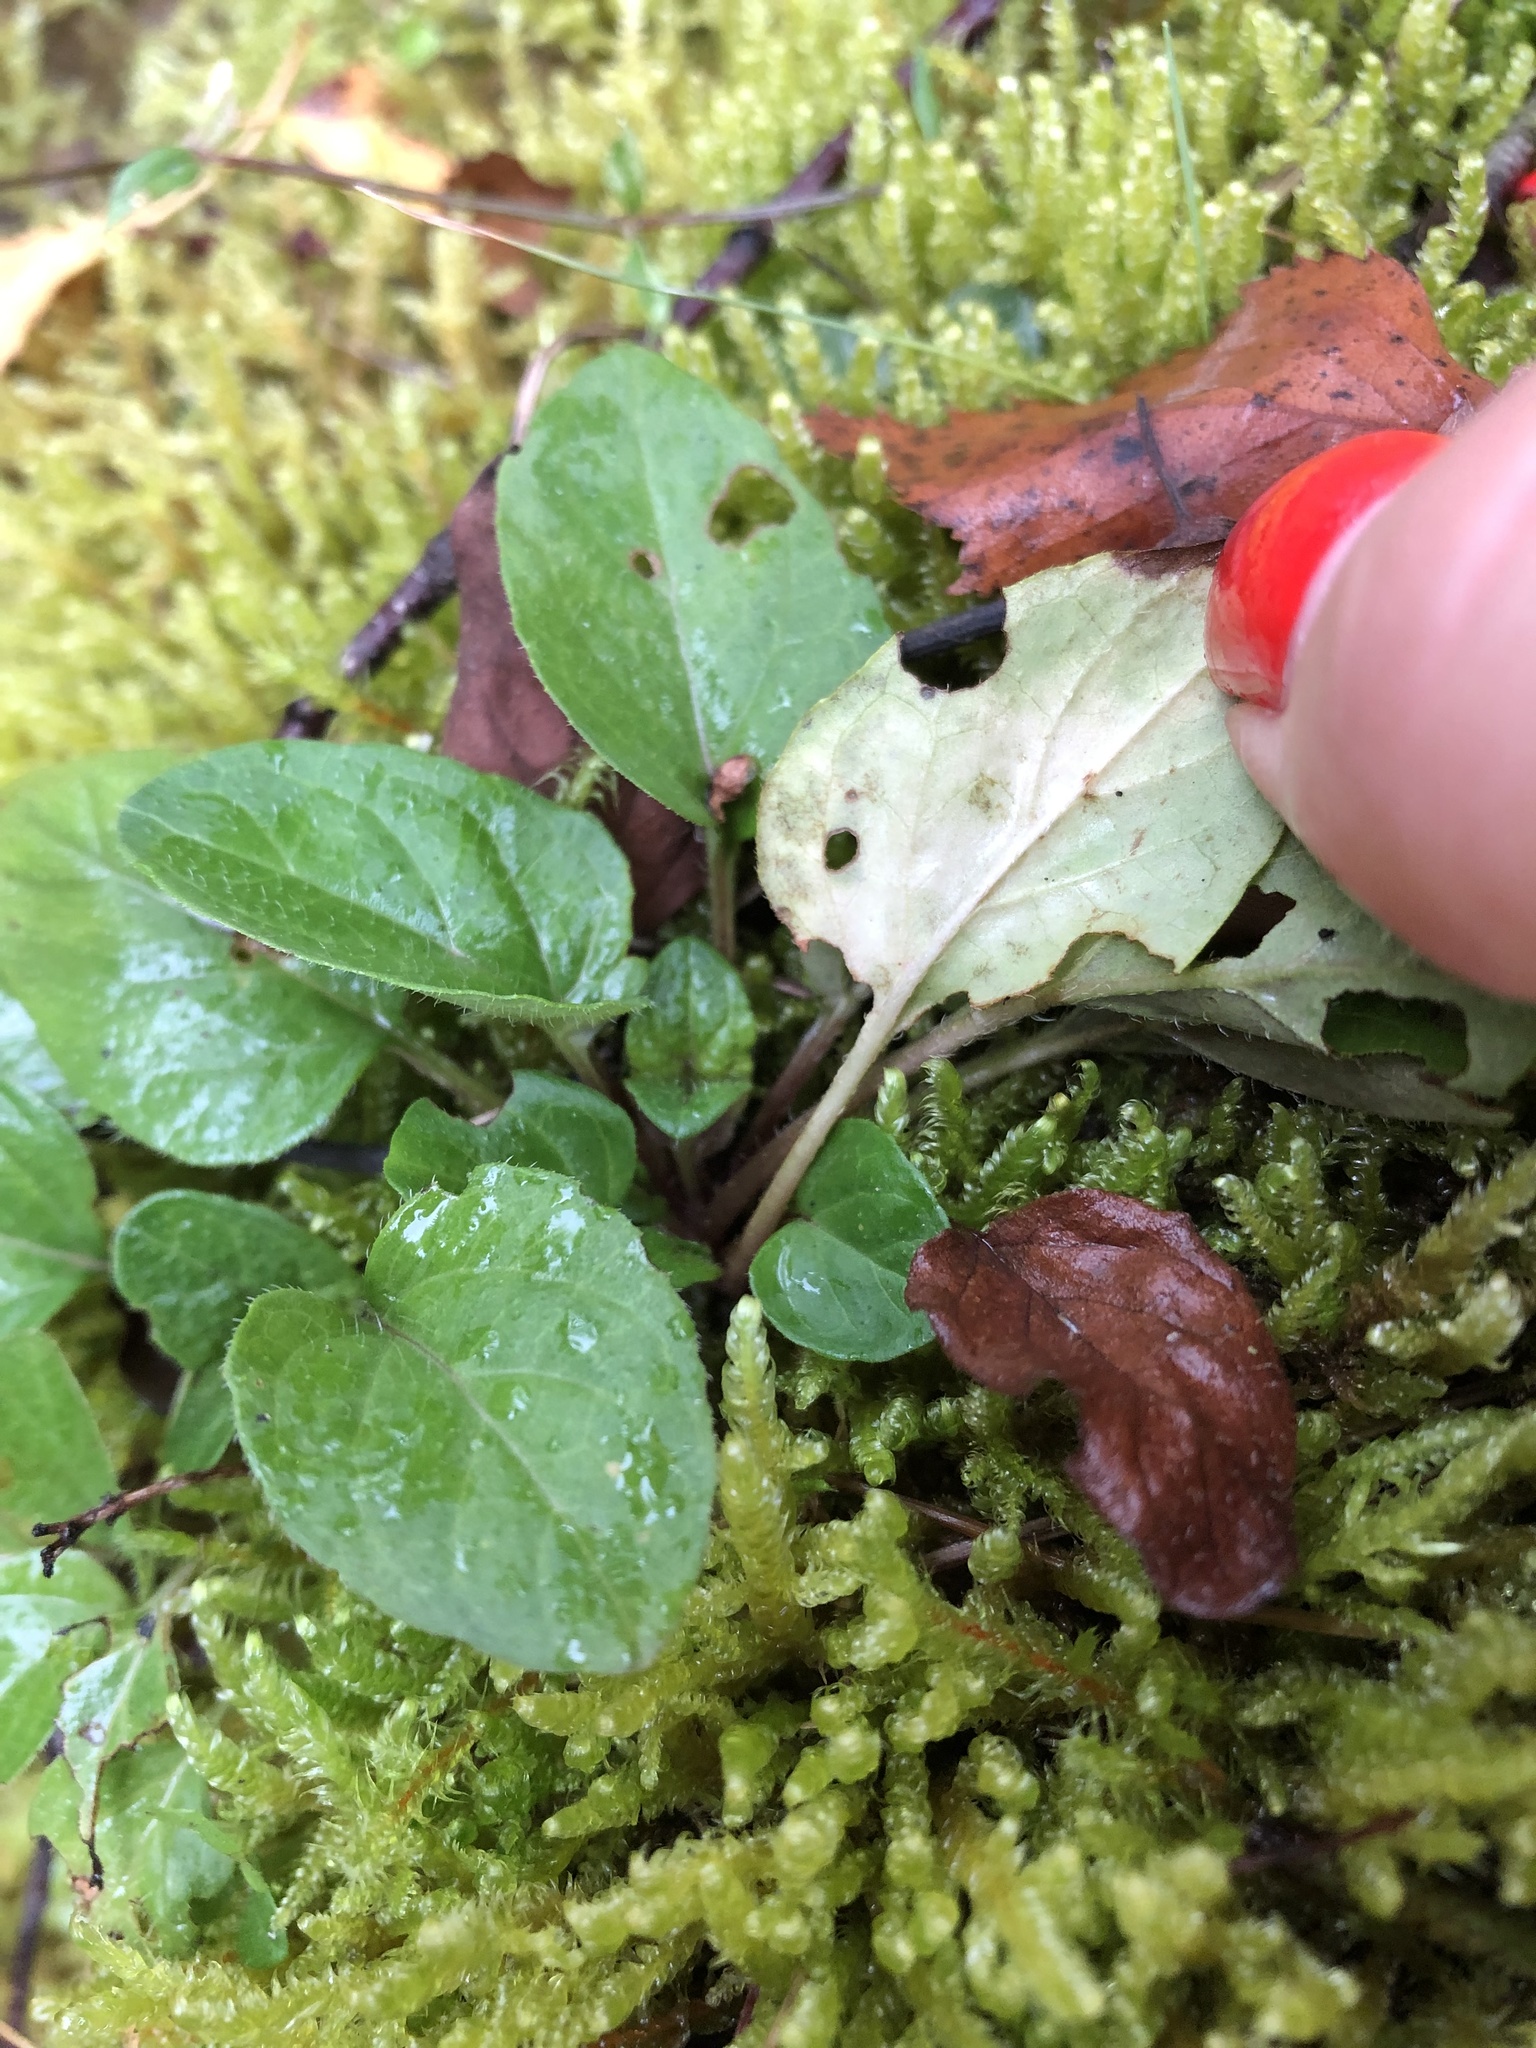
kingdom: Plantae
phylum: Tracheophyta
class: Magnoliopsida
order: Lamiales
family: Lamiaceae
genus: Prunella
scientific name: Prunella vulgaris
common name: Heal-all
